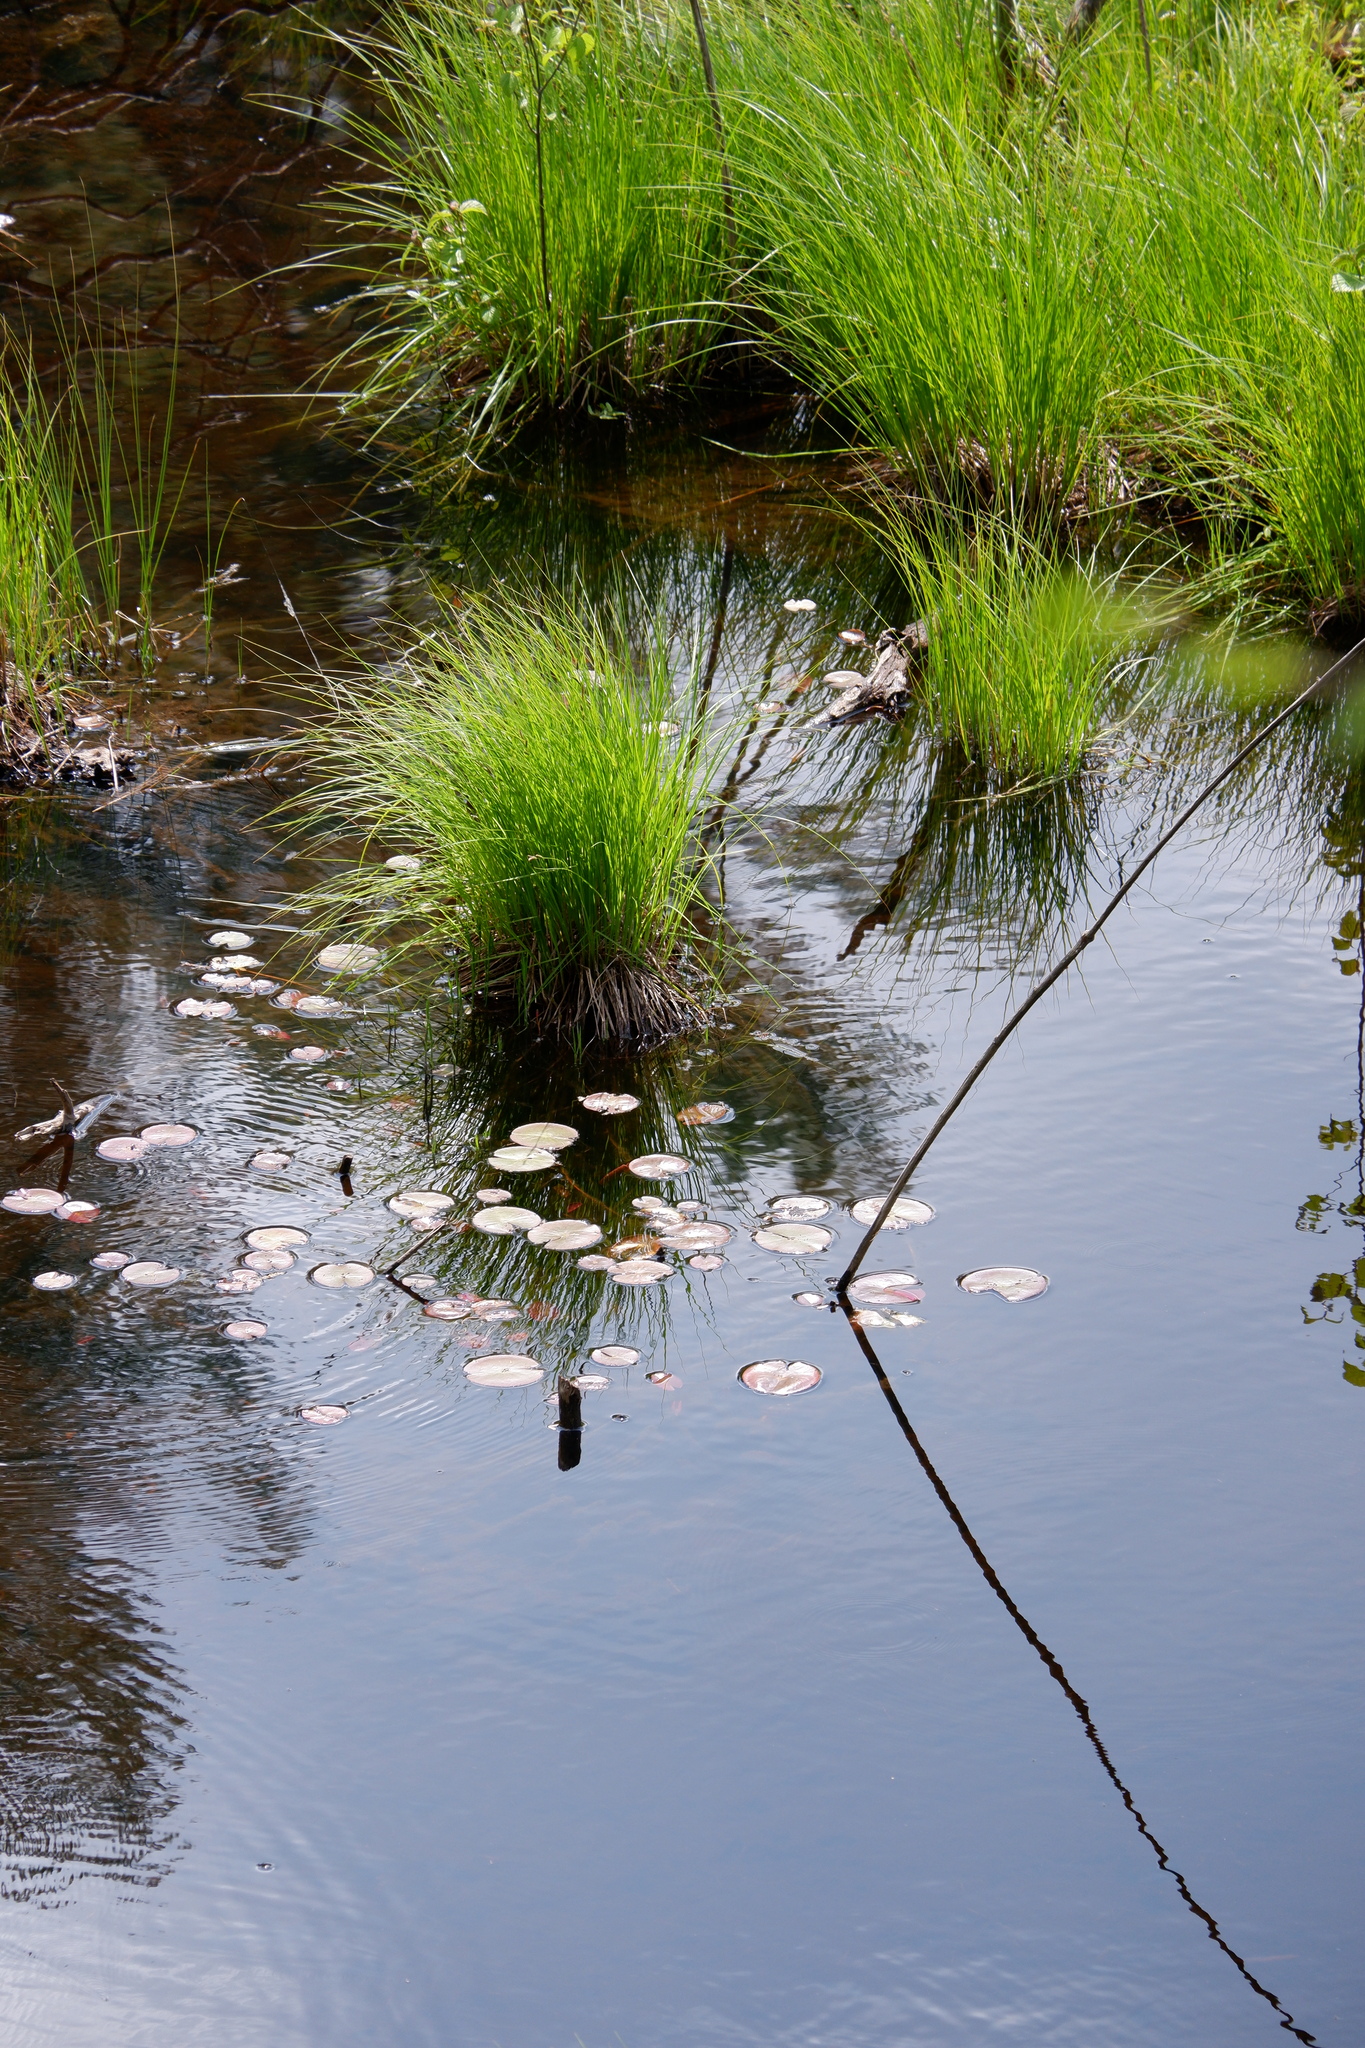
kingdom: Plantae
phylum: Tracheophyta
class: Magnoliopsida
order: Nymphaeales
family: Nymphaeaceae
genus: Nymphaea
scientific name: Nymphaea odorata
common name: Fragrant water-lily
